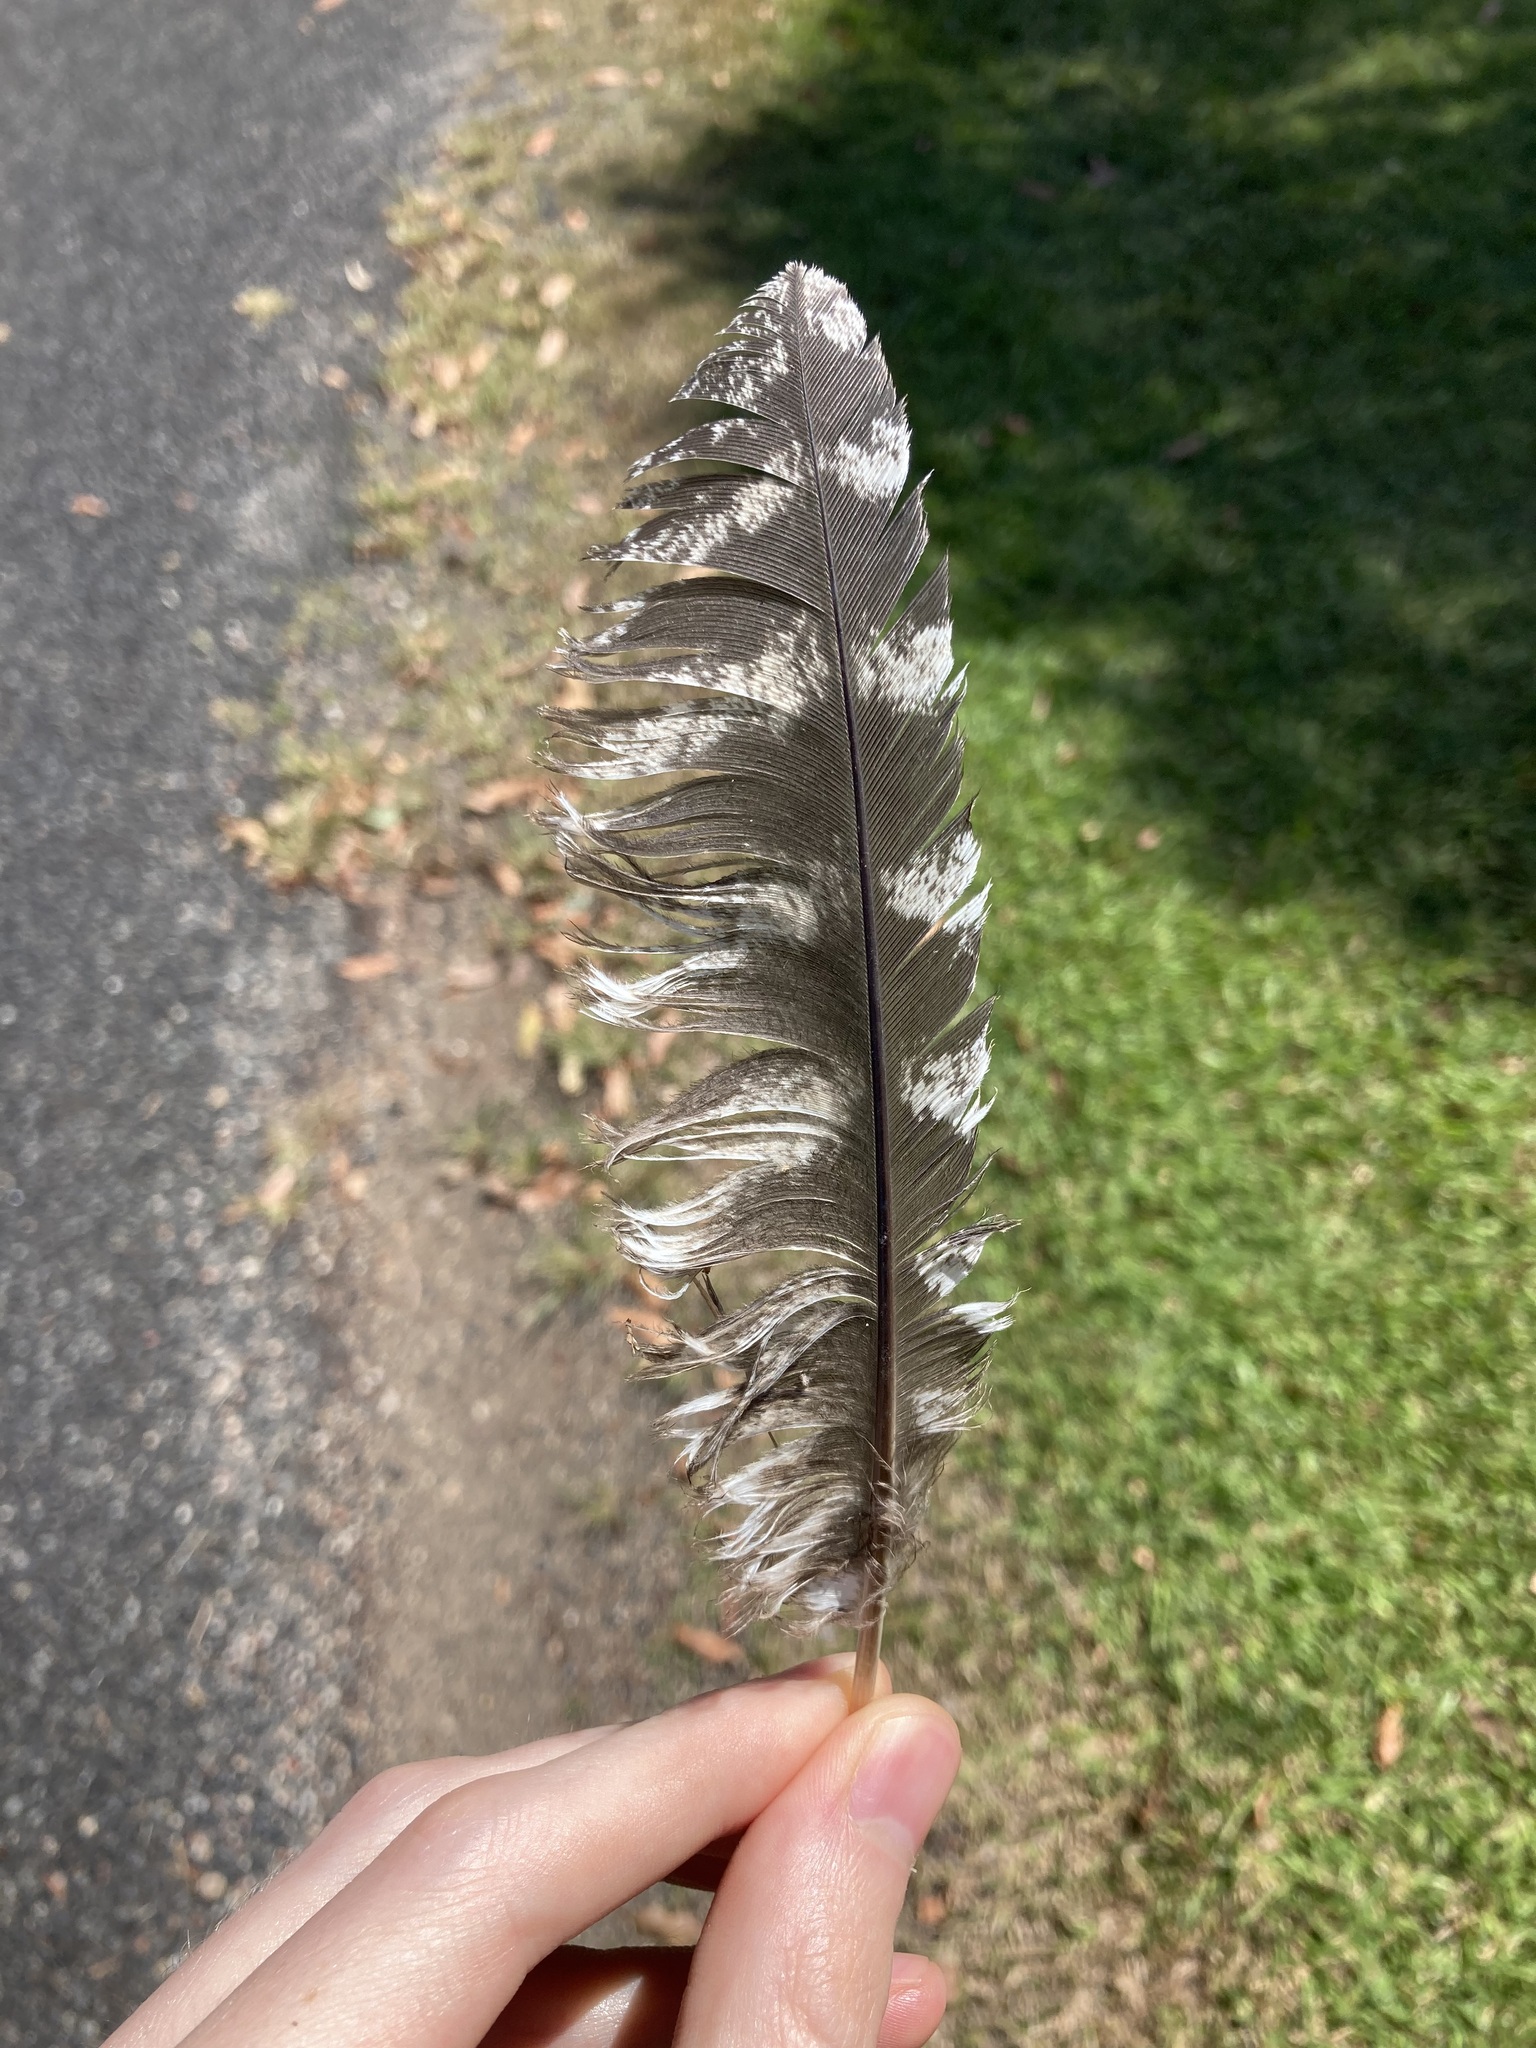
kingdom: Animalia
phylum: Chordata
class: Aves
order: Caprimulgiformes
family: Podargidae
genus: Podargus
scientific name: Podargus strigoides
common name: Tawny frogmouth
